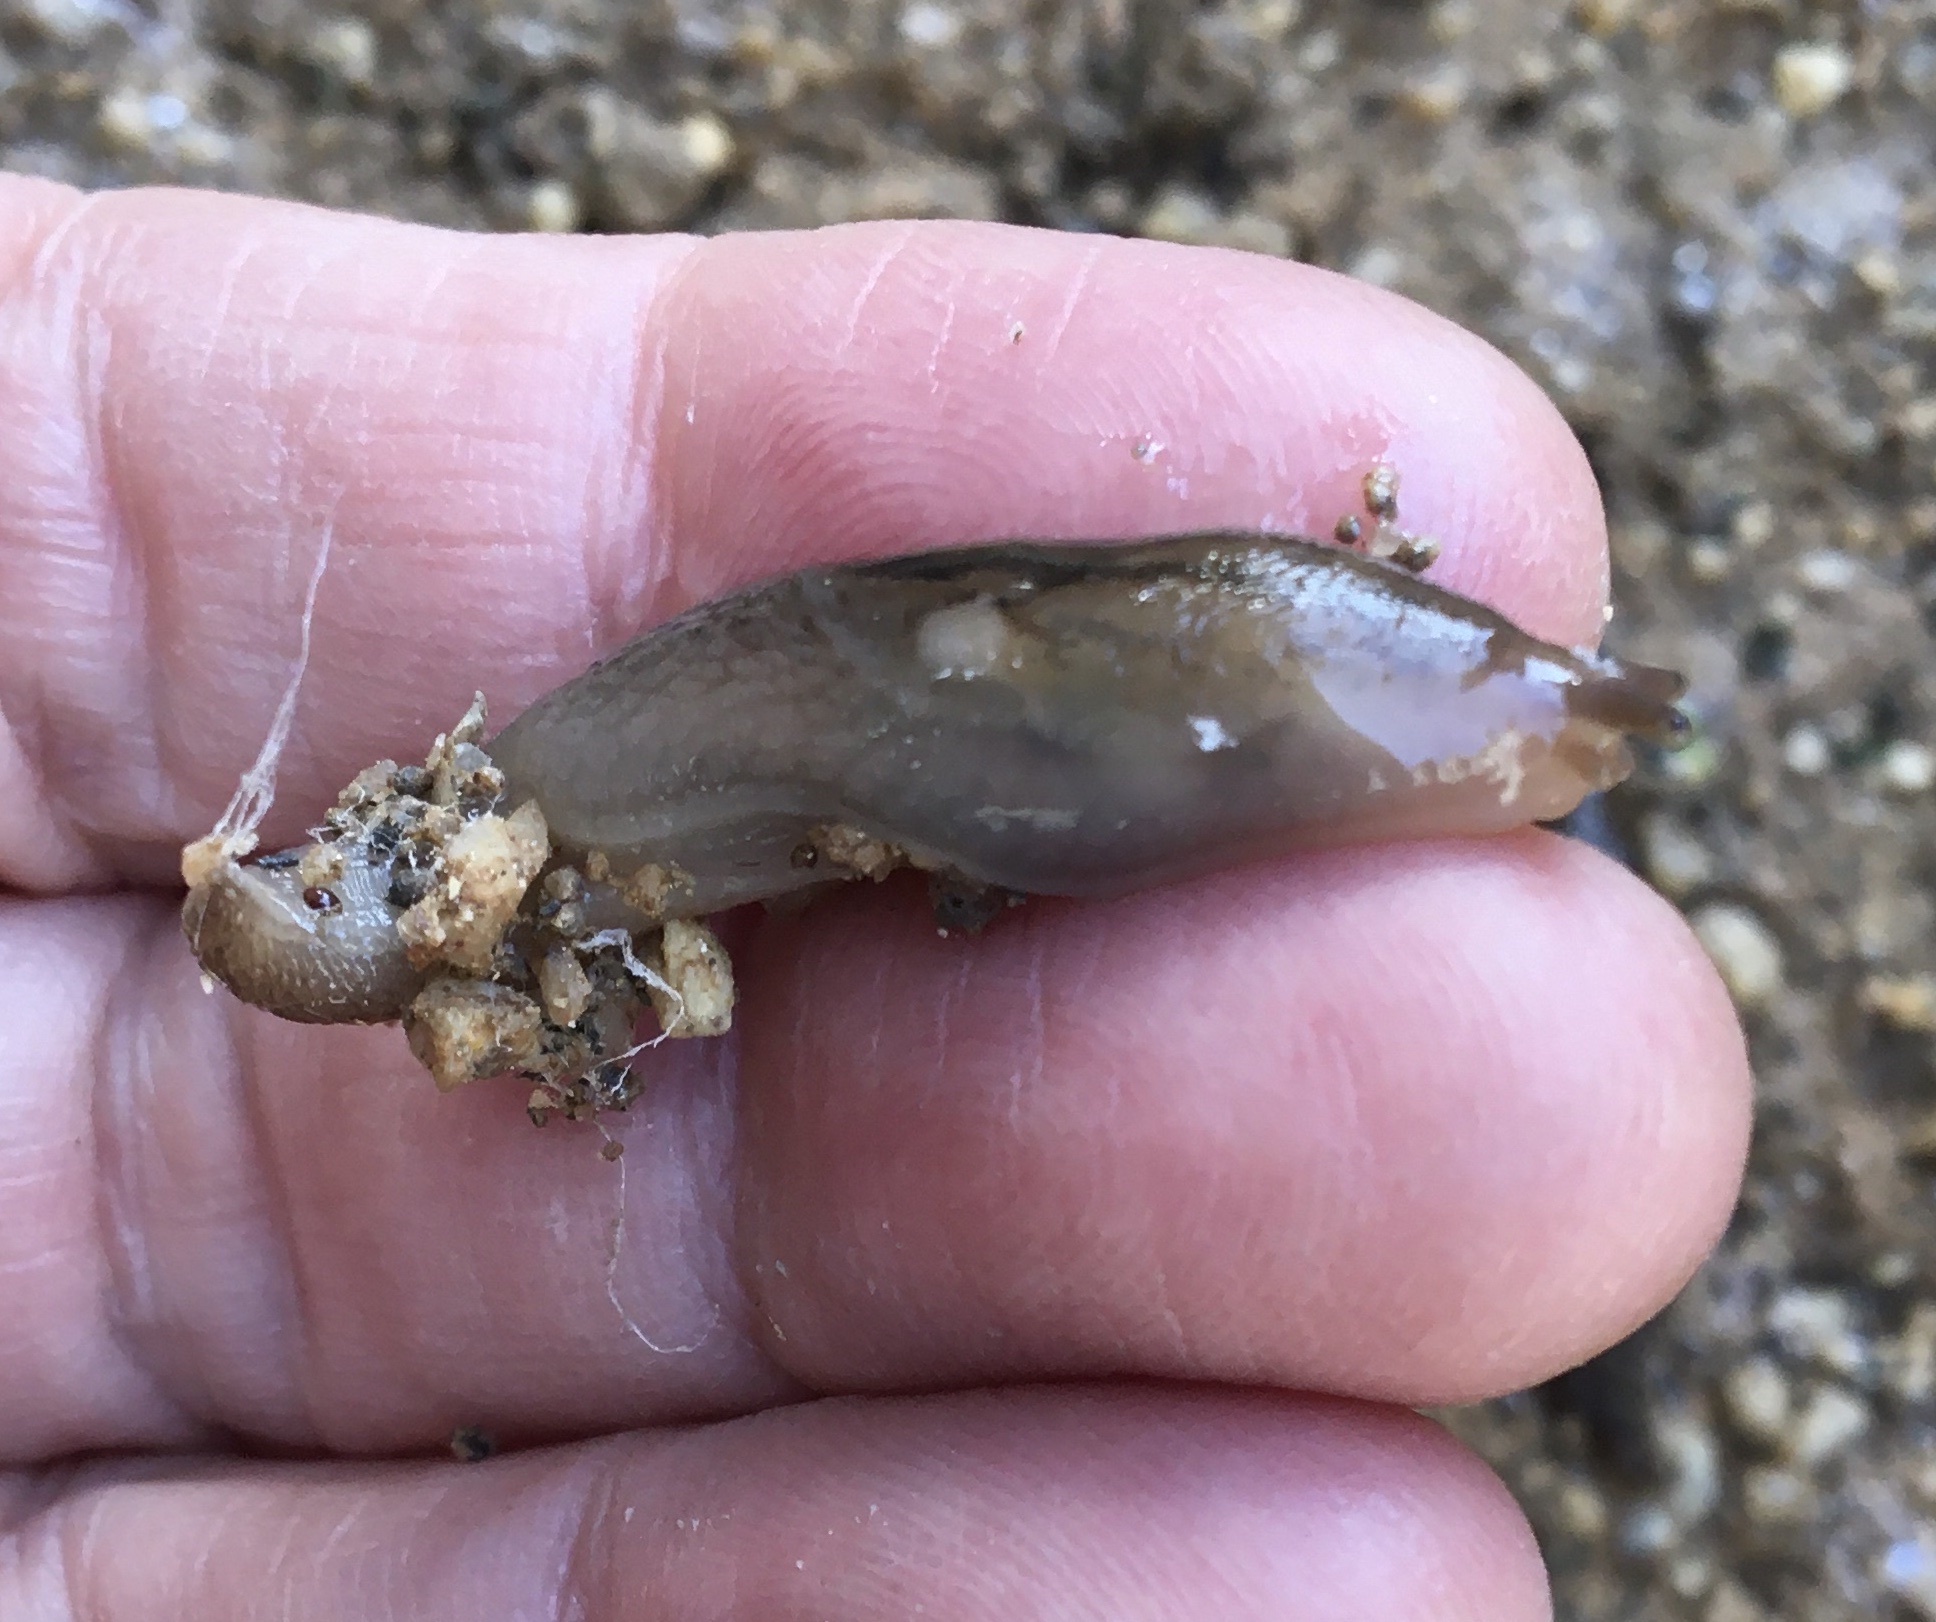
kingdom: Animalia
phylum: Mollusca
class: Gastropoda
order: Stylommatophora
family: Limacidae
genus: Ambigolimax
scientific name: Ambigolimax
